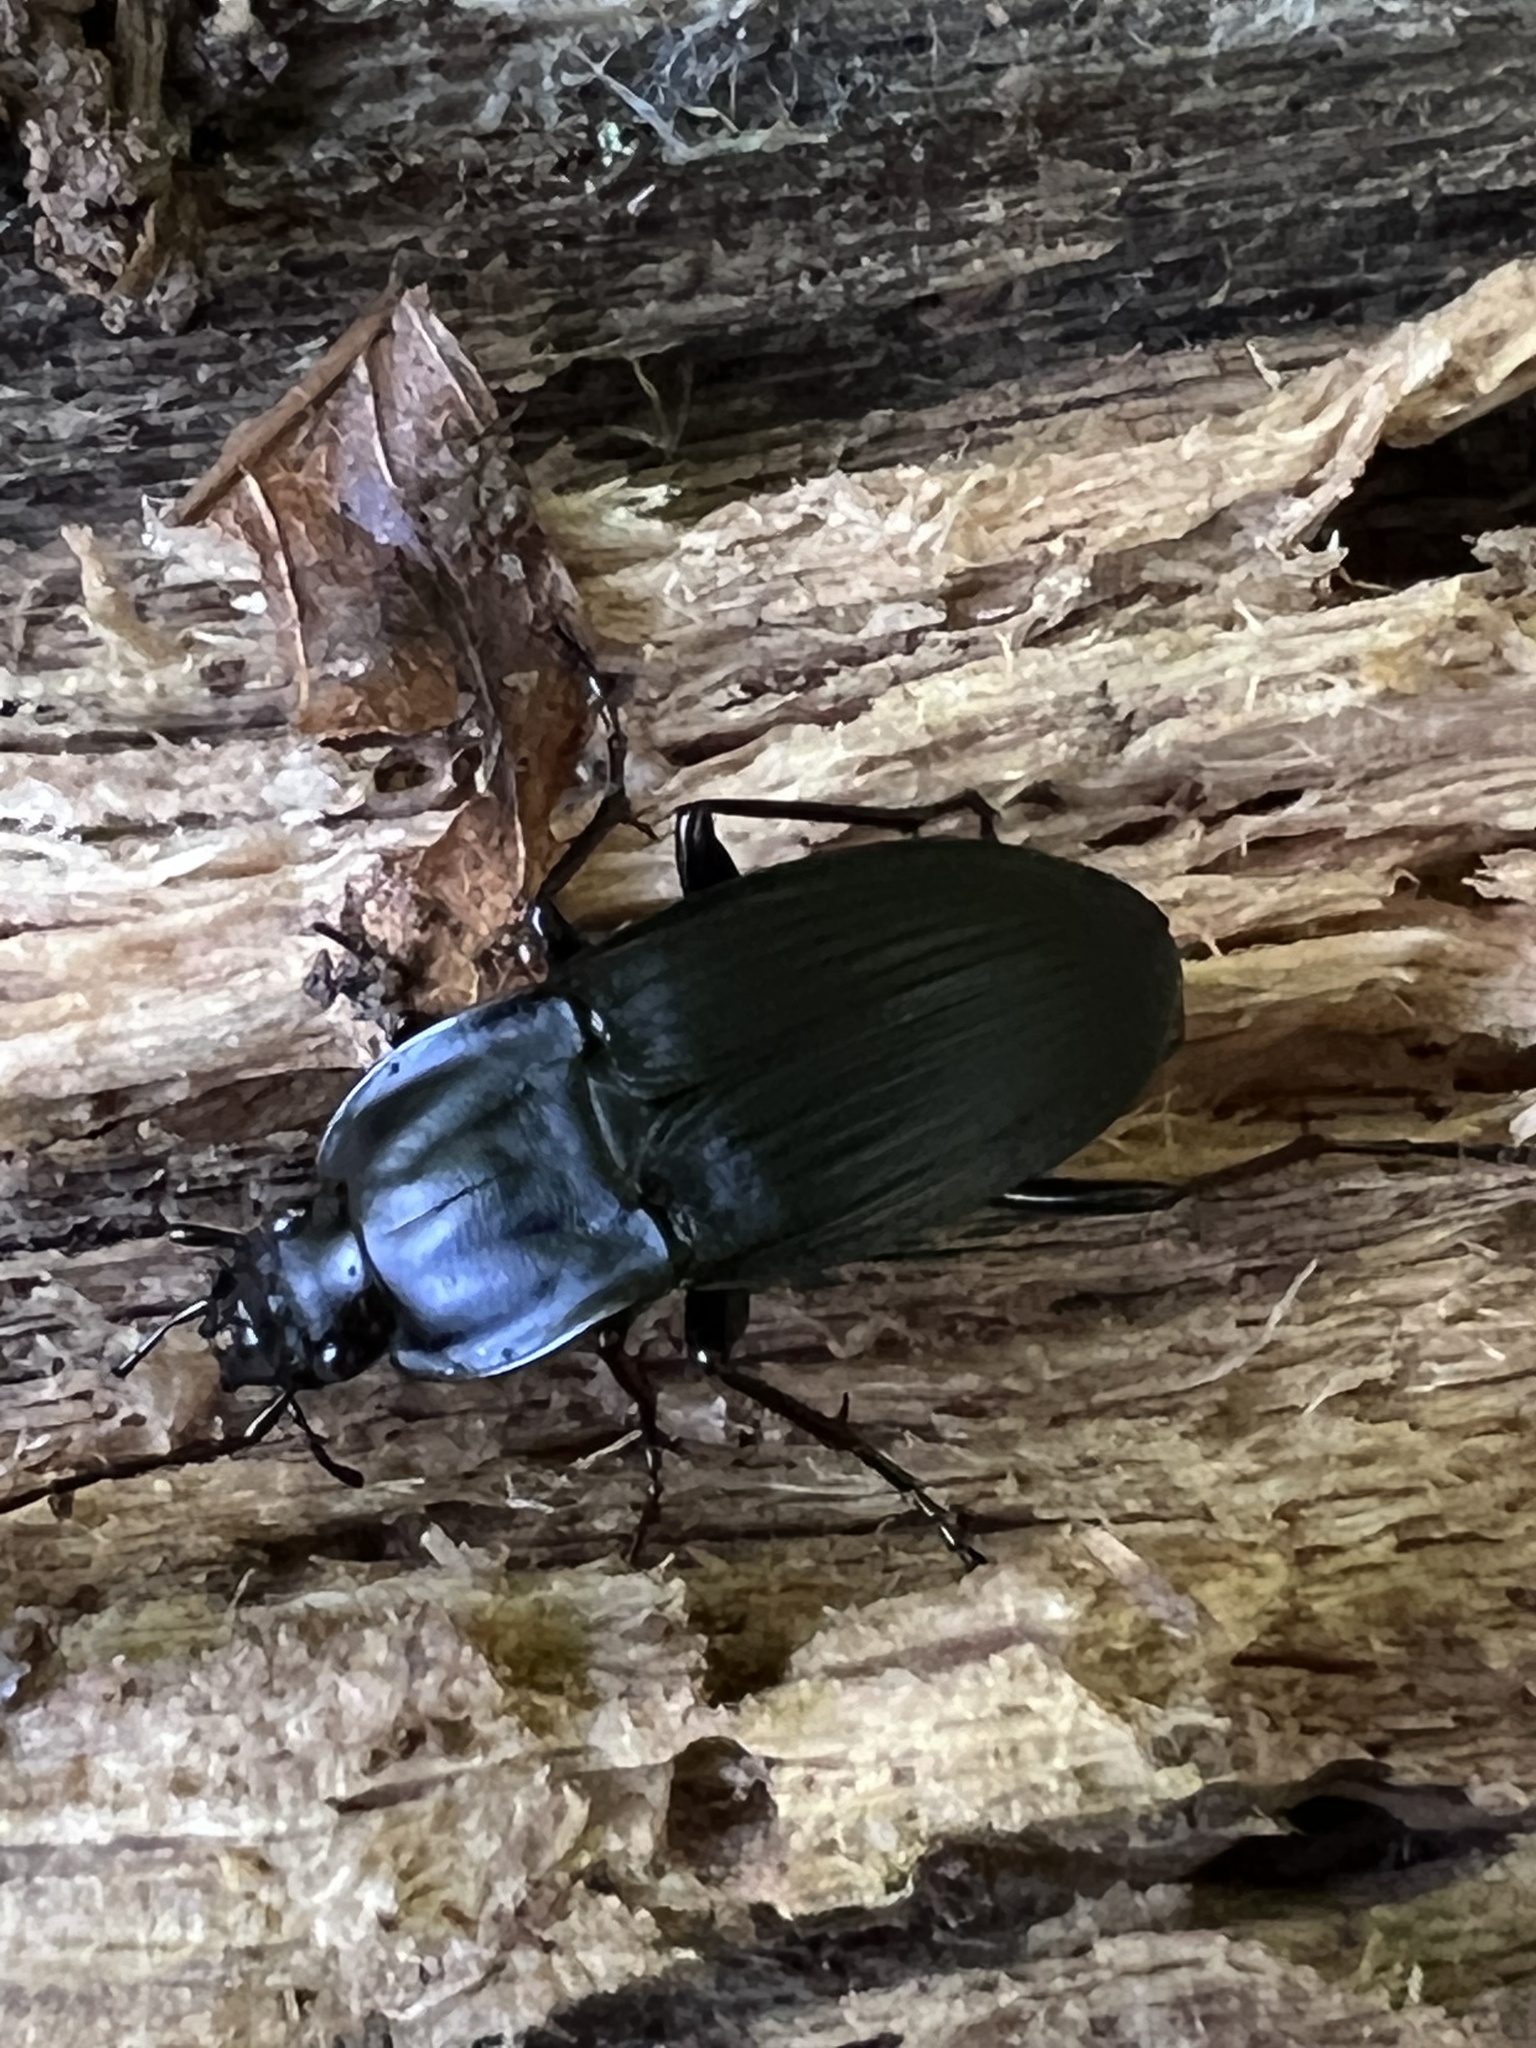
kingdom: Animalia
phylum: Arthropoda
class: Insecta
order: Coleoptera
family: Carabidae
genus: Dicaelus
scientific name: Dicaelus elongatus
